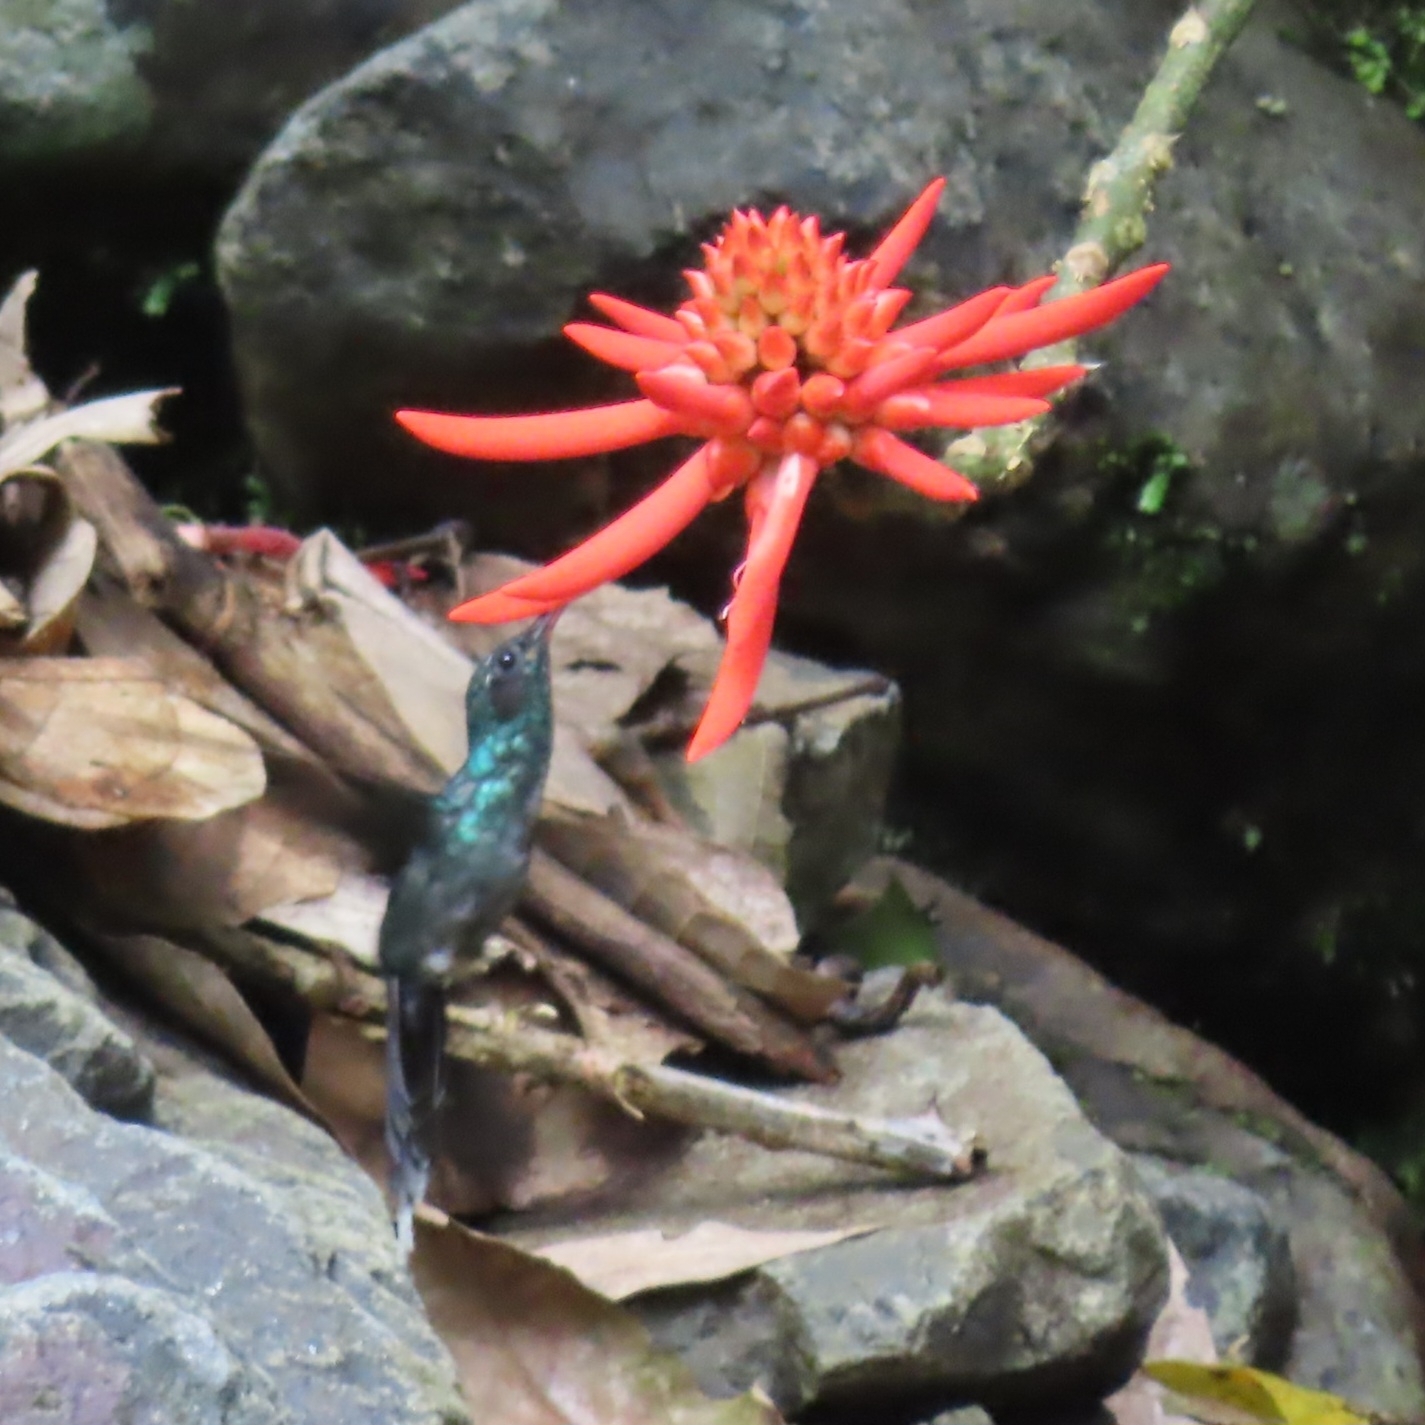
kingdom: Animalia
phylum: Chordata
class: Aves
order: Apodiformes
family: Trochilidae
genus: Phaethornis
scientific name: Phaethornis guy
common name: Green hermit
